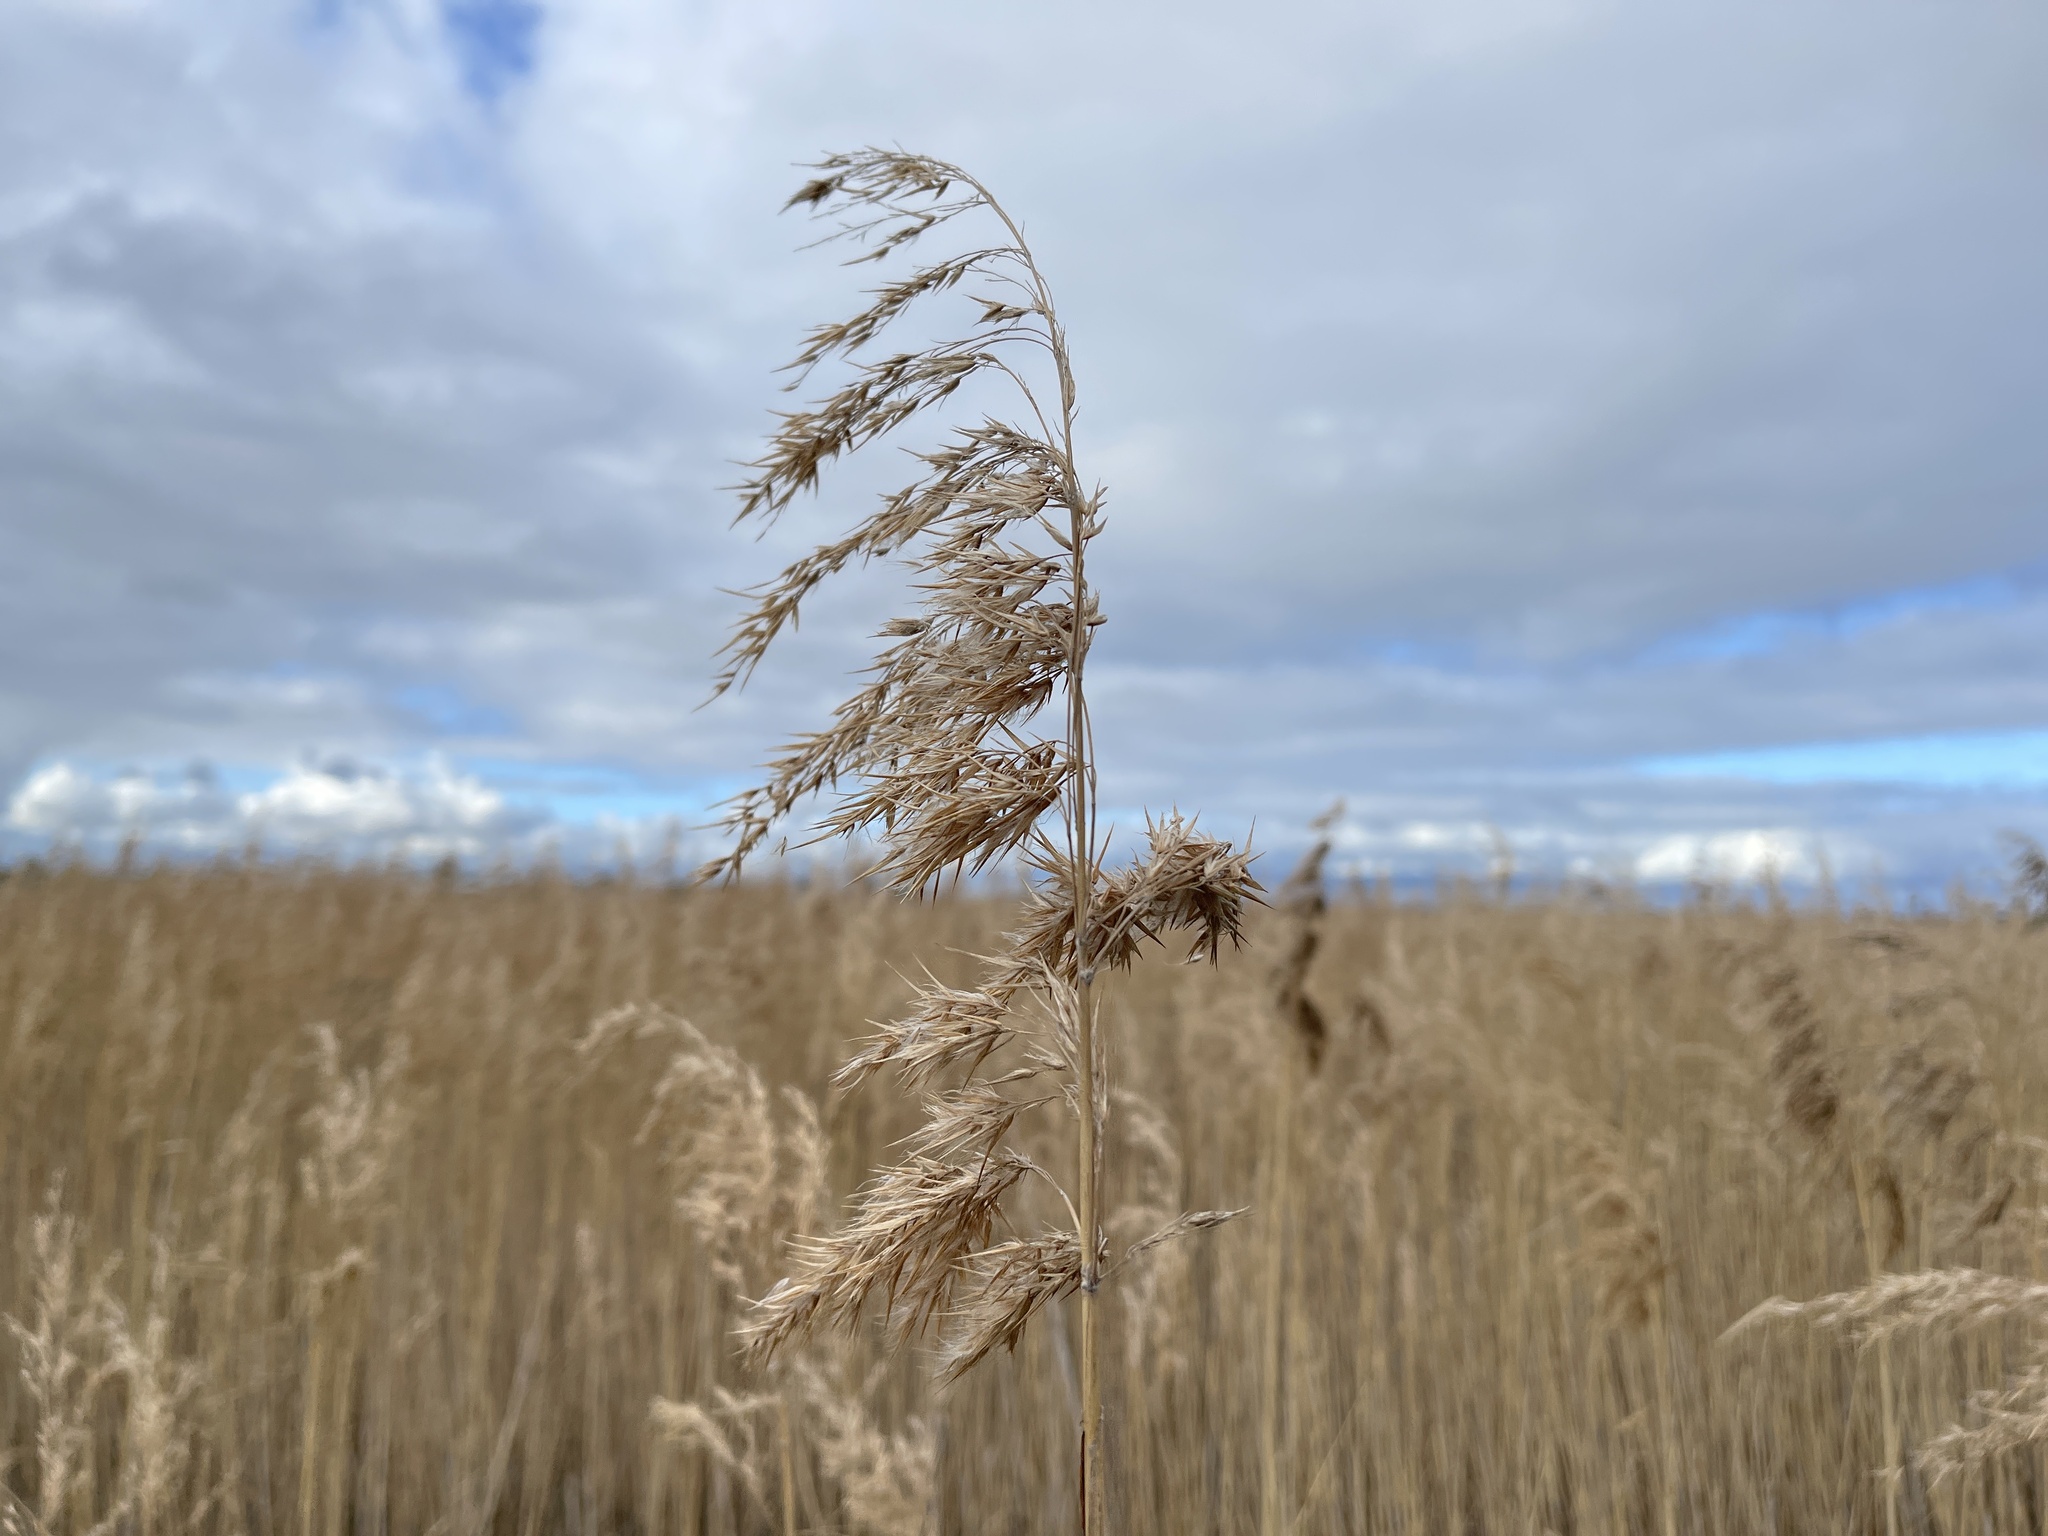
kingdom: Plantae
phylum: Tracheophyta
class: Liliopsida
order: Poales
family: Poaceae
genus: Phragmites
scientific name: Phragmites australis
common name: Common reed
